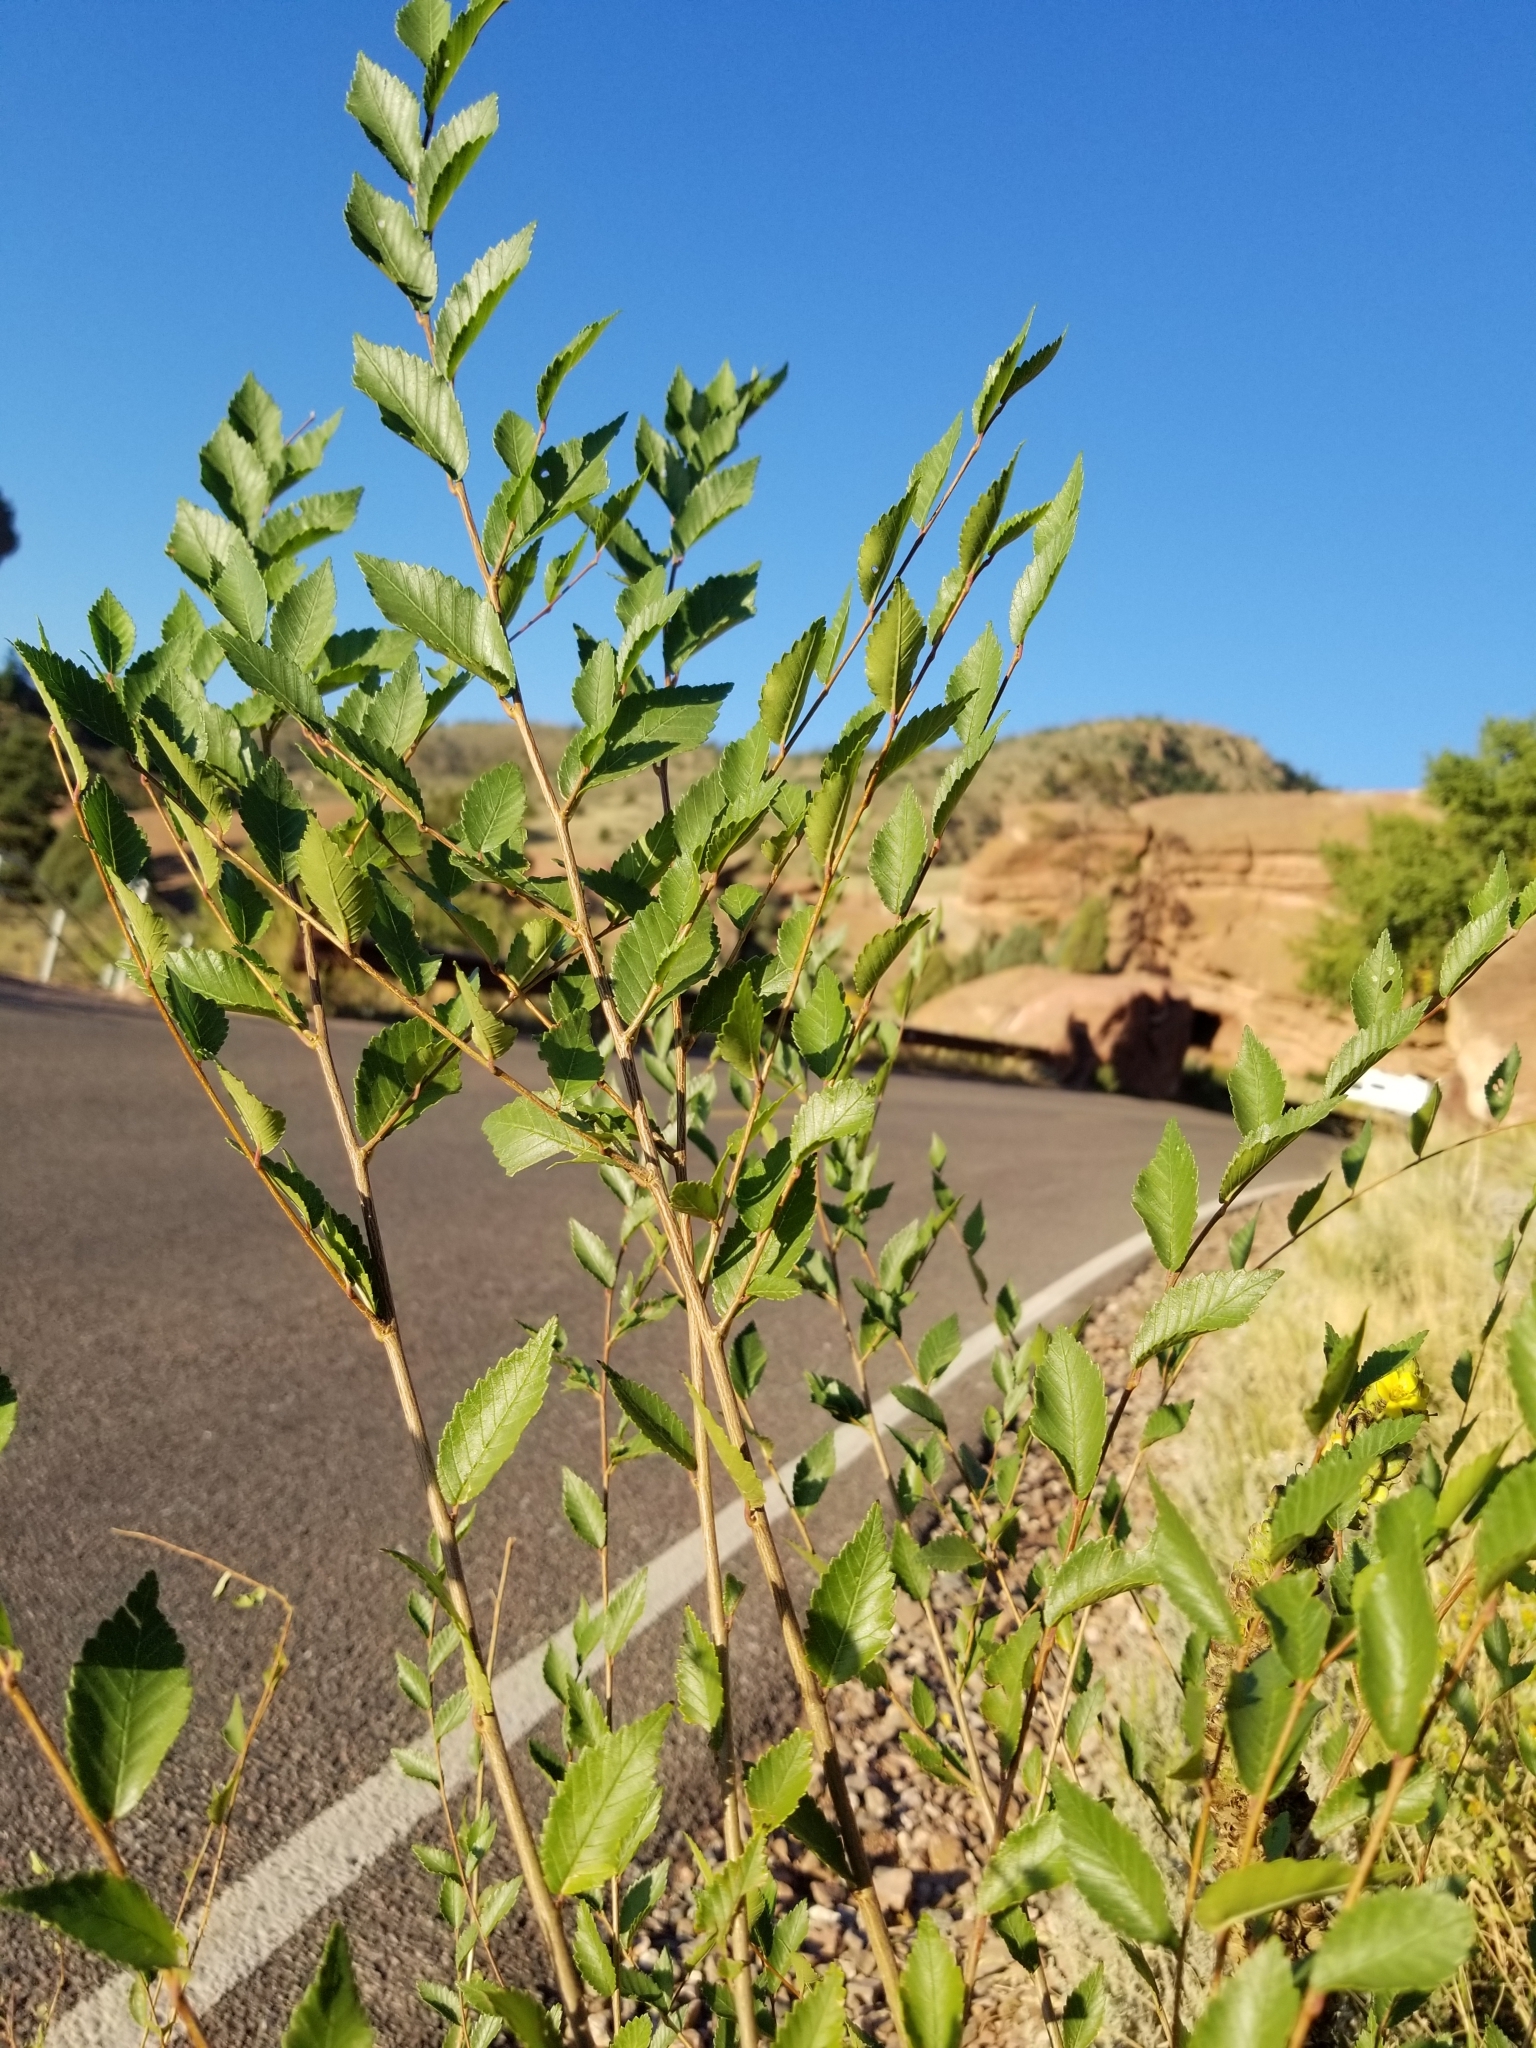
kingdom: Plantae
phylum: Tracheophyta
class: Magnoliopsida
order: Rosales
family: Ulmaceae
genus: Ulmus
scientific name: Ulmus pumila
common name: Siberian elm
